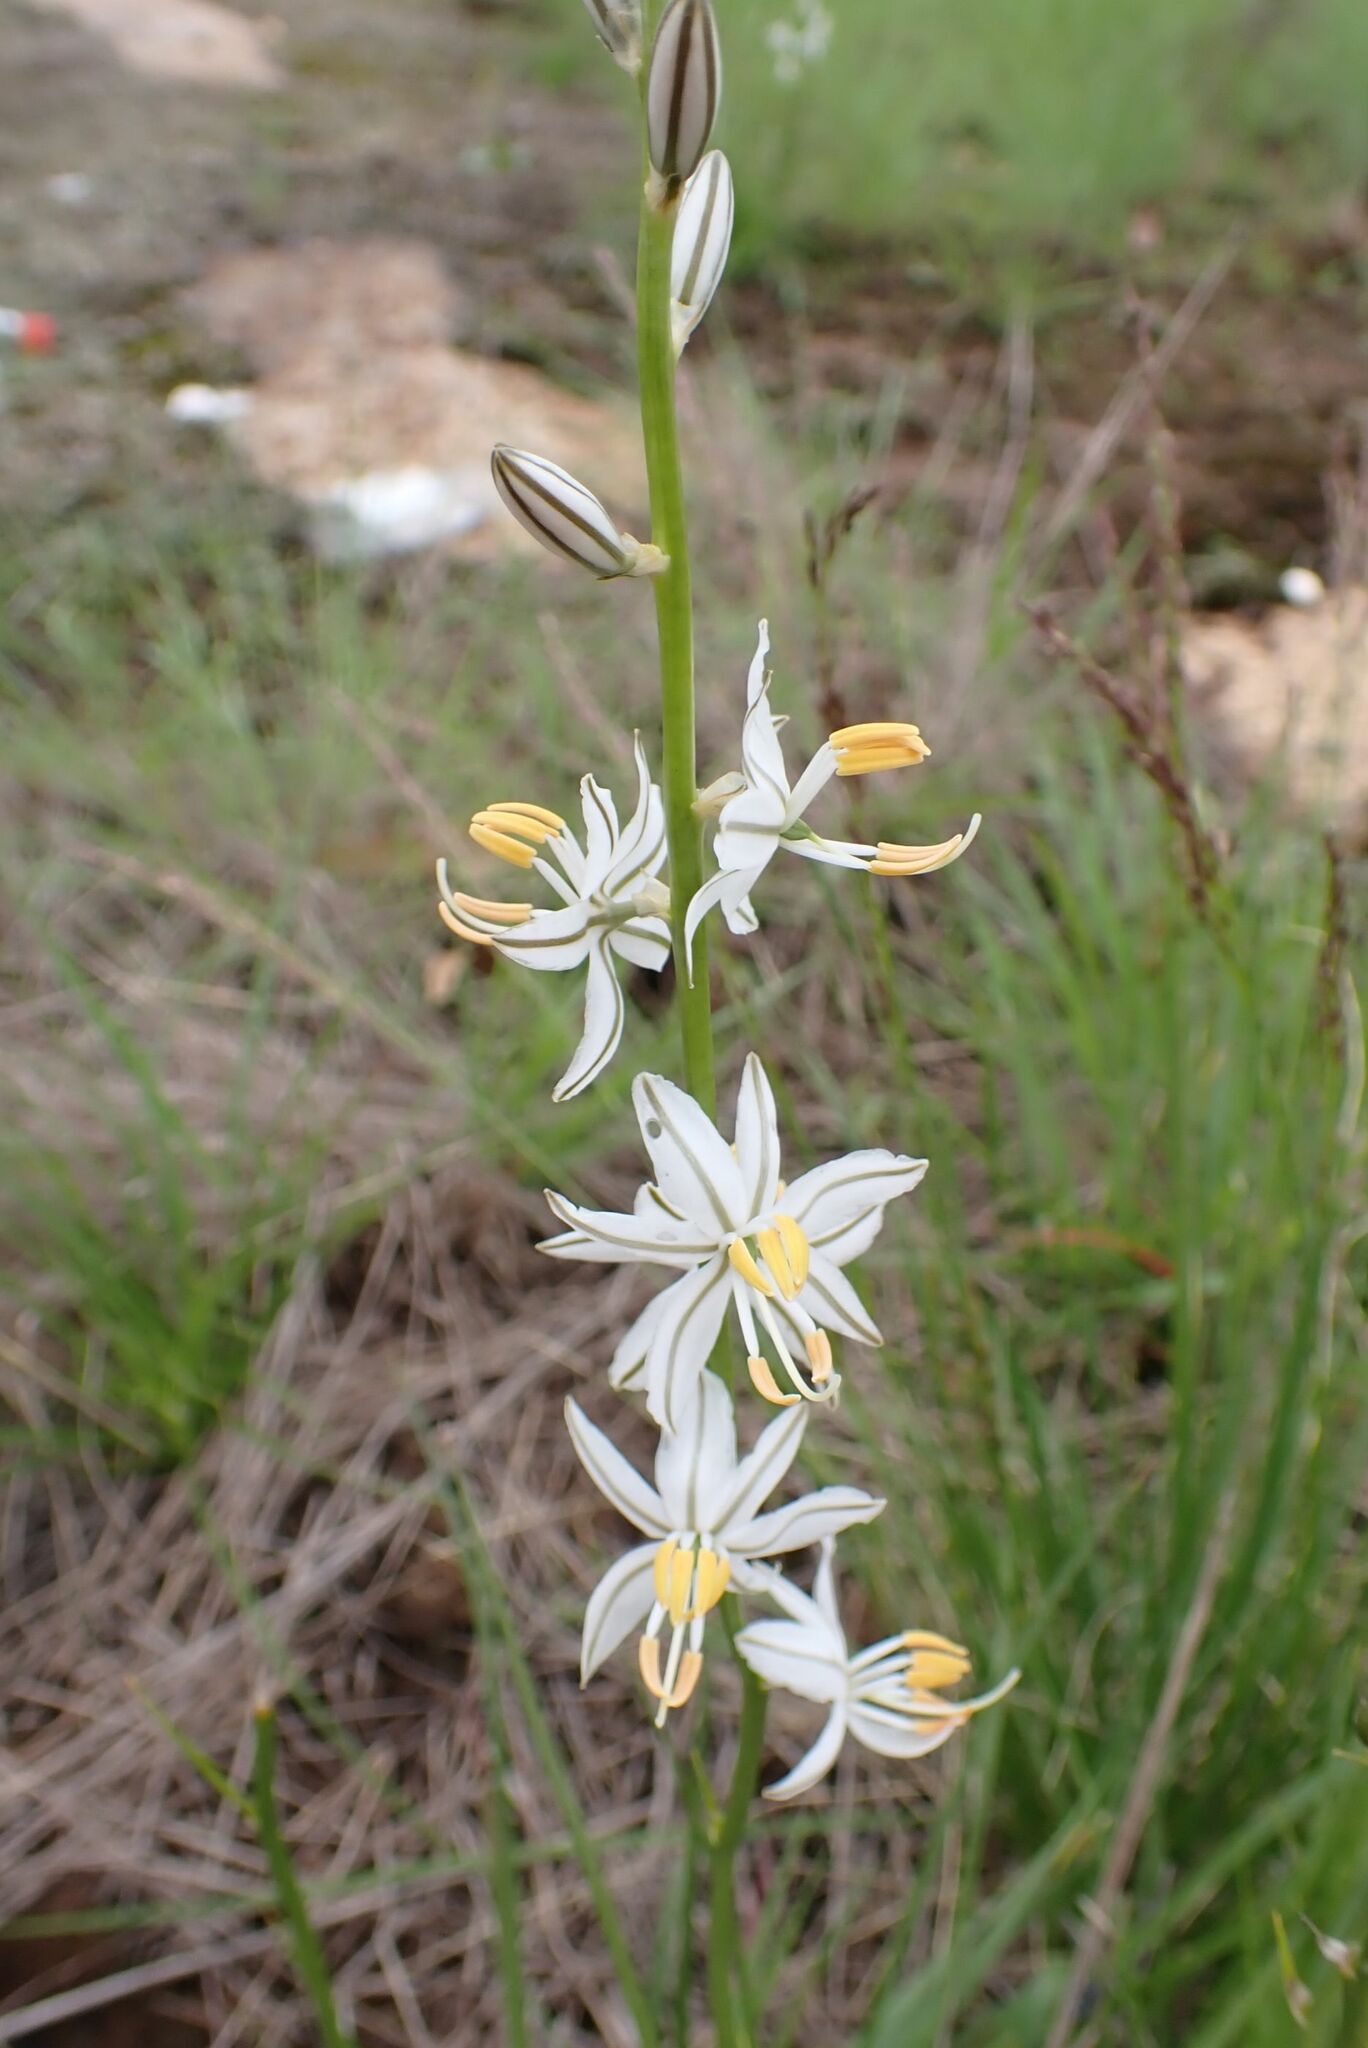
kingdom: Plantae
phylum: Tracheophyta
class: Liliopsida
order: Asparagales
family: Asparagaceae
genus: Chlorophytum
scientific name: Chlorophytum recurvifolium
